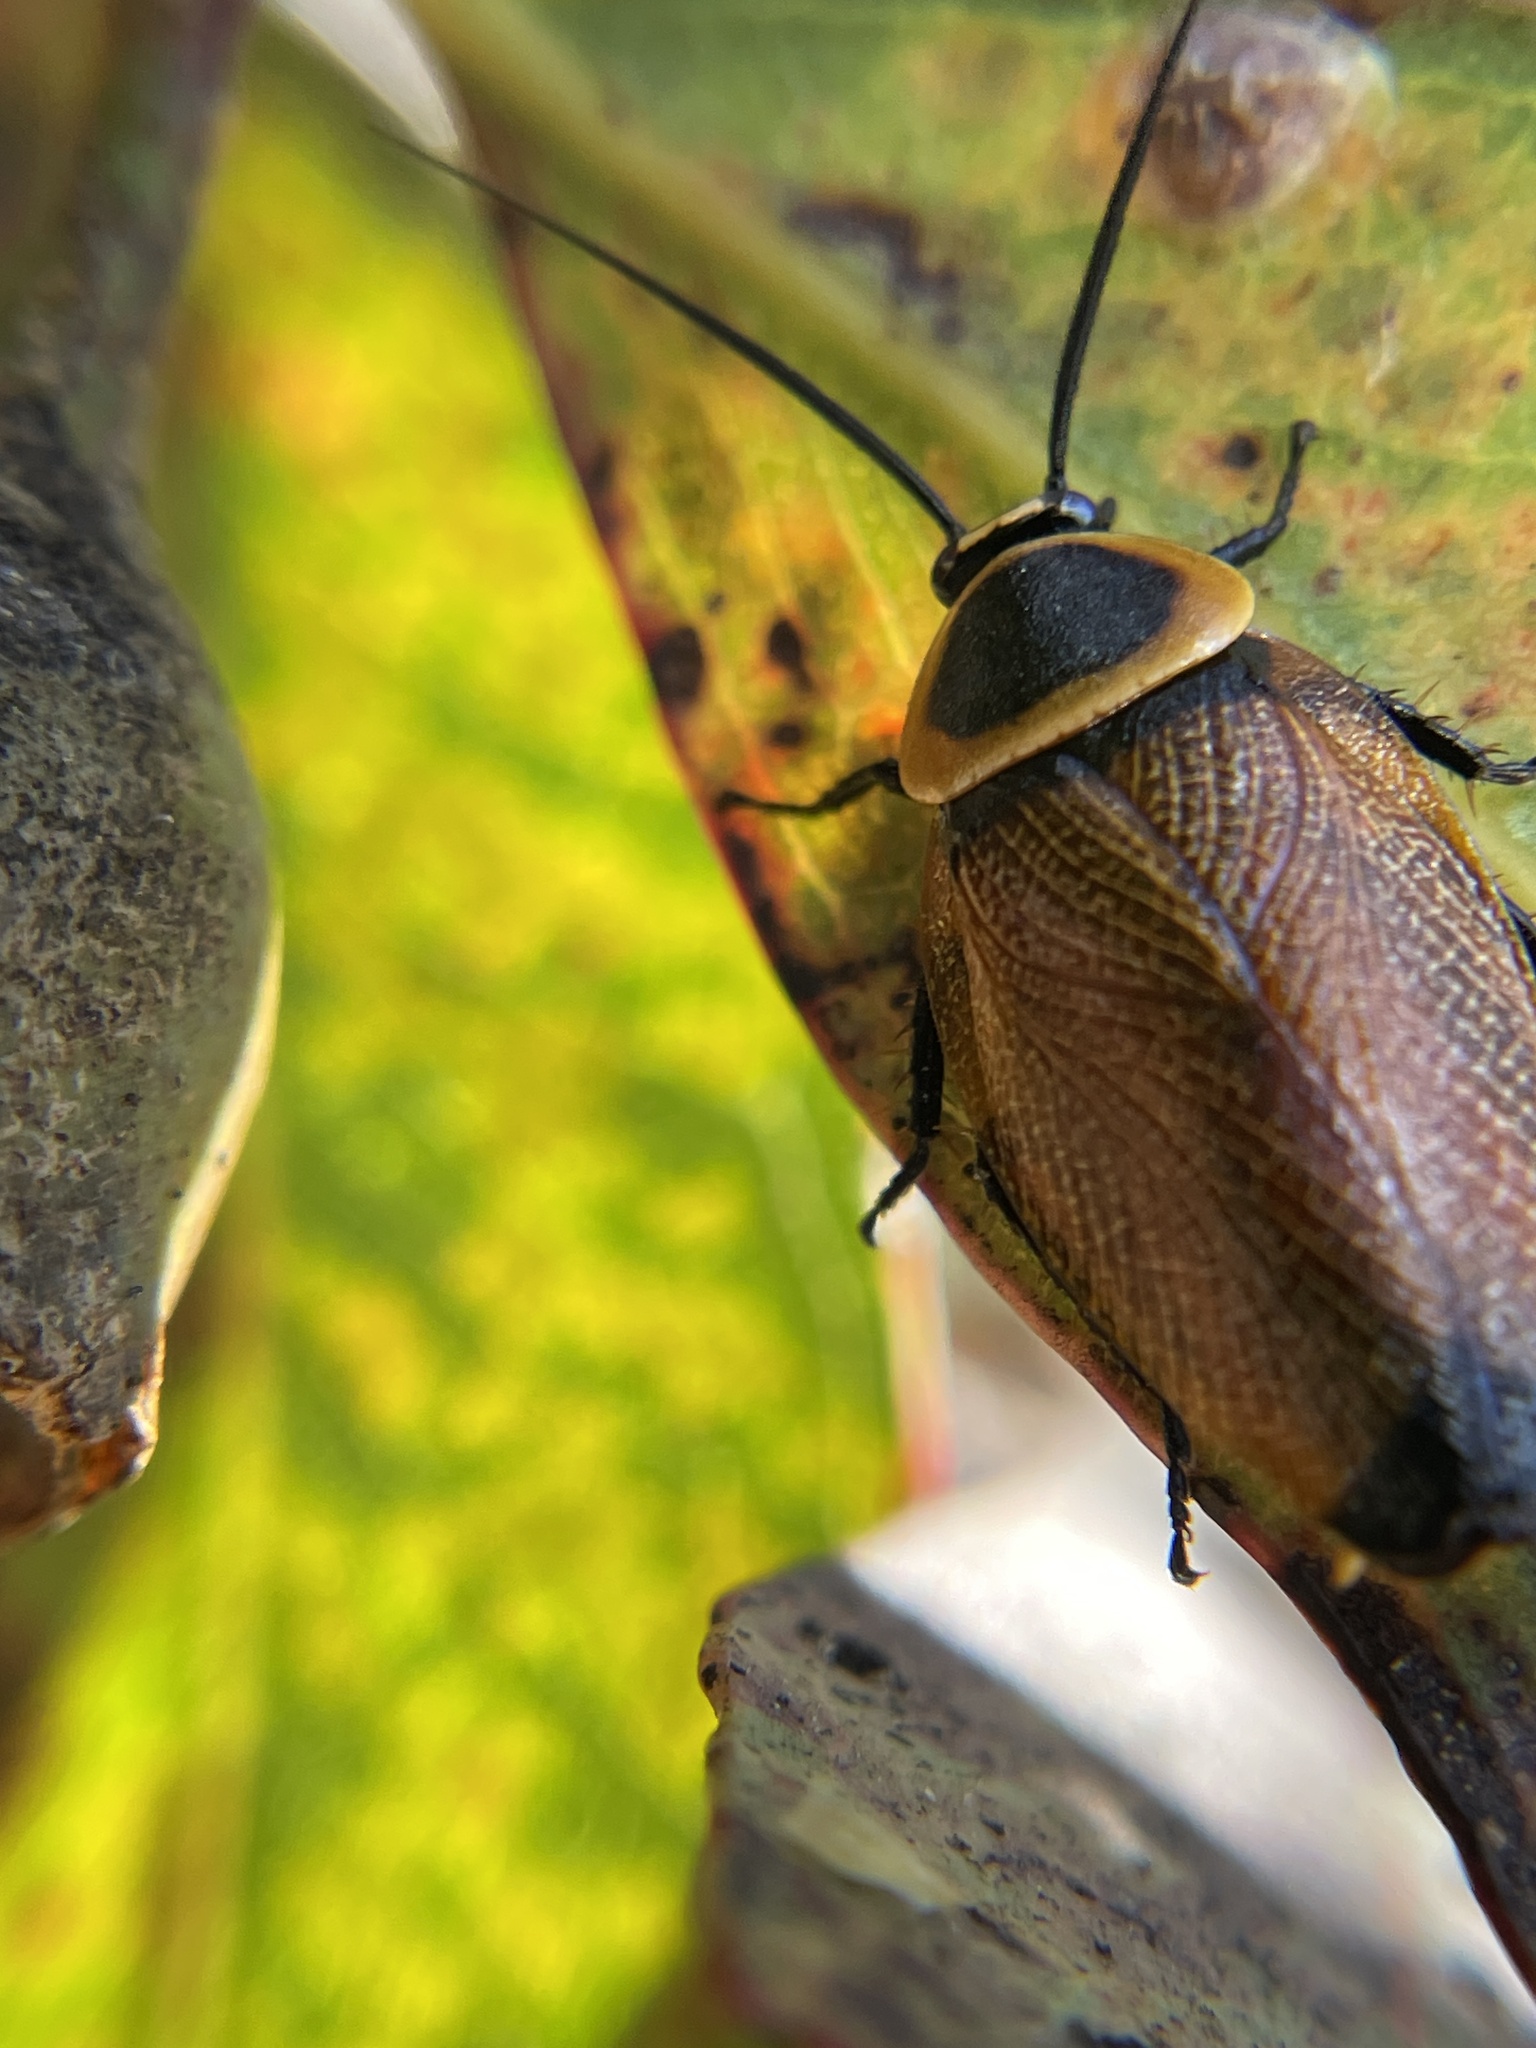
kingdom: Animalia
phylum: Arthropoda
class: Insecta
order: Blattodea
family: Ectobiidae
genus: Ellipsidion
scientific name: Ellipsidion australe
